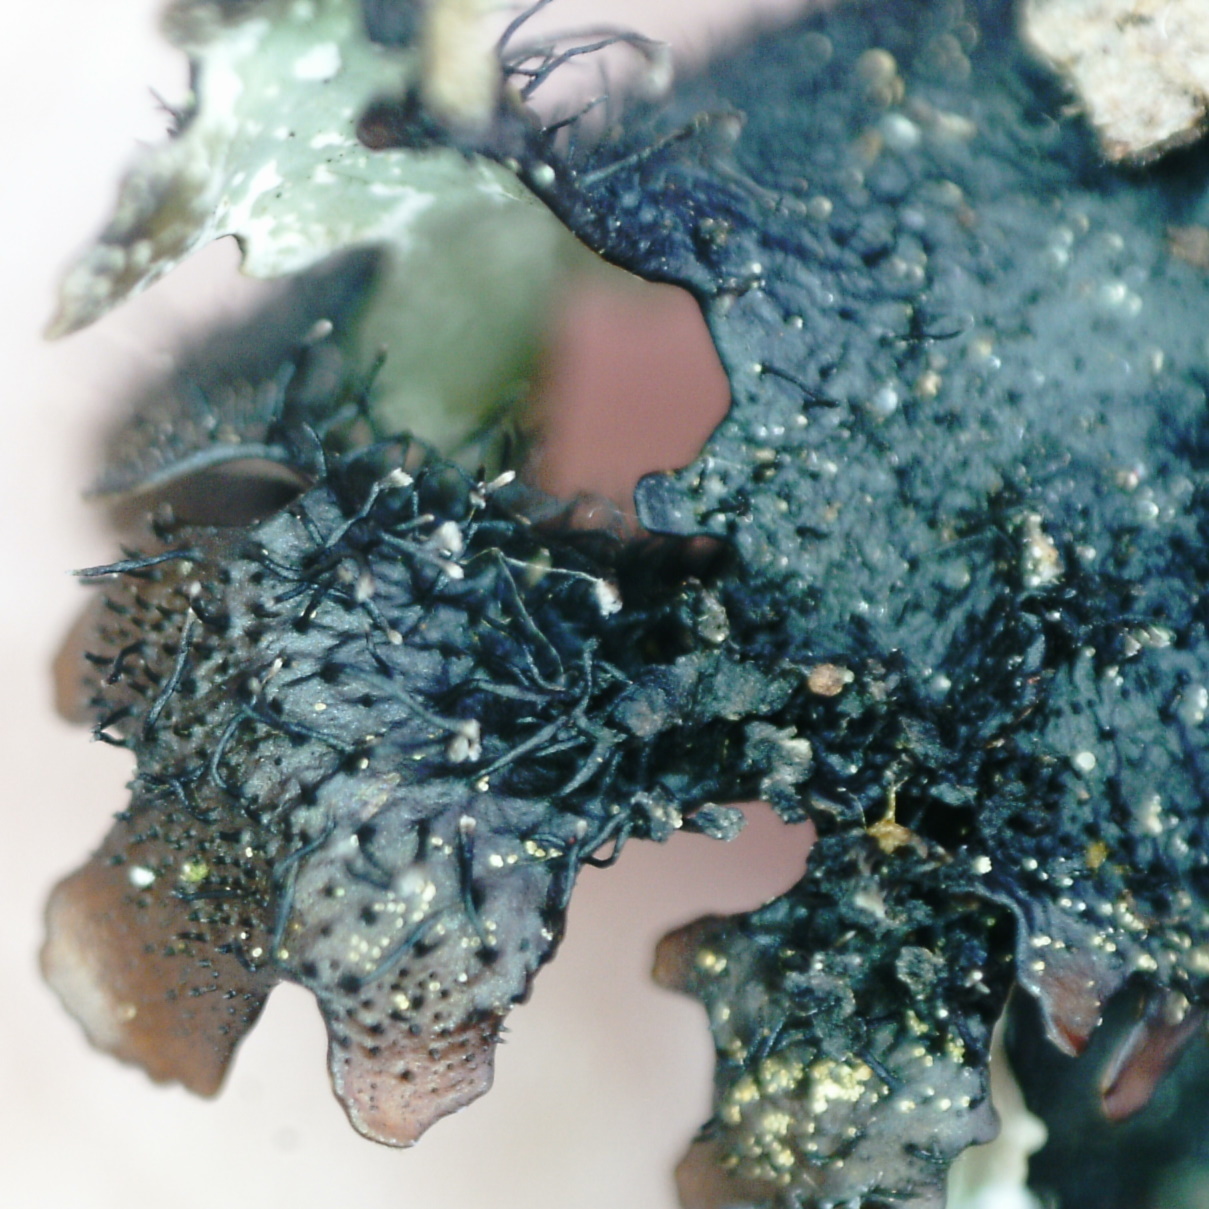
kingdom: Fungi
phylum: Ascomycota
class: Lecanoromycetes
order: Lecanorales
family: Parmeliaceae
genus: Parmelia
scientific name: Parmelia omphalodes
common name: Smoky crottle
